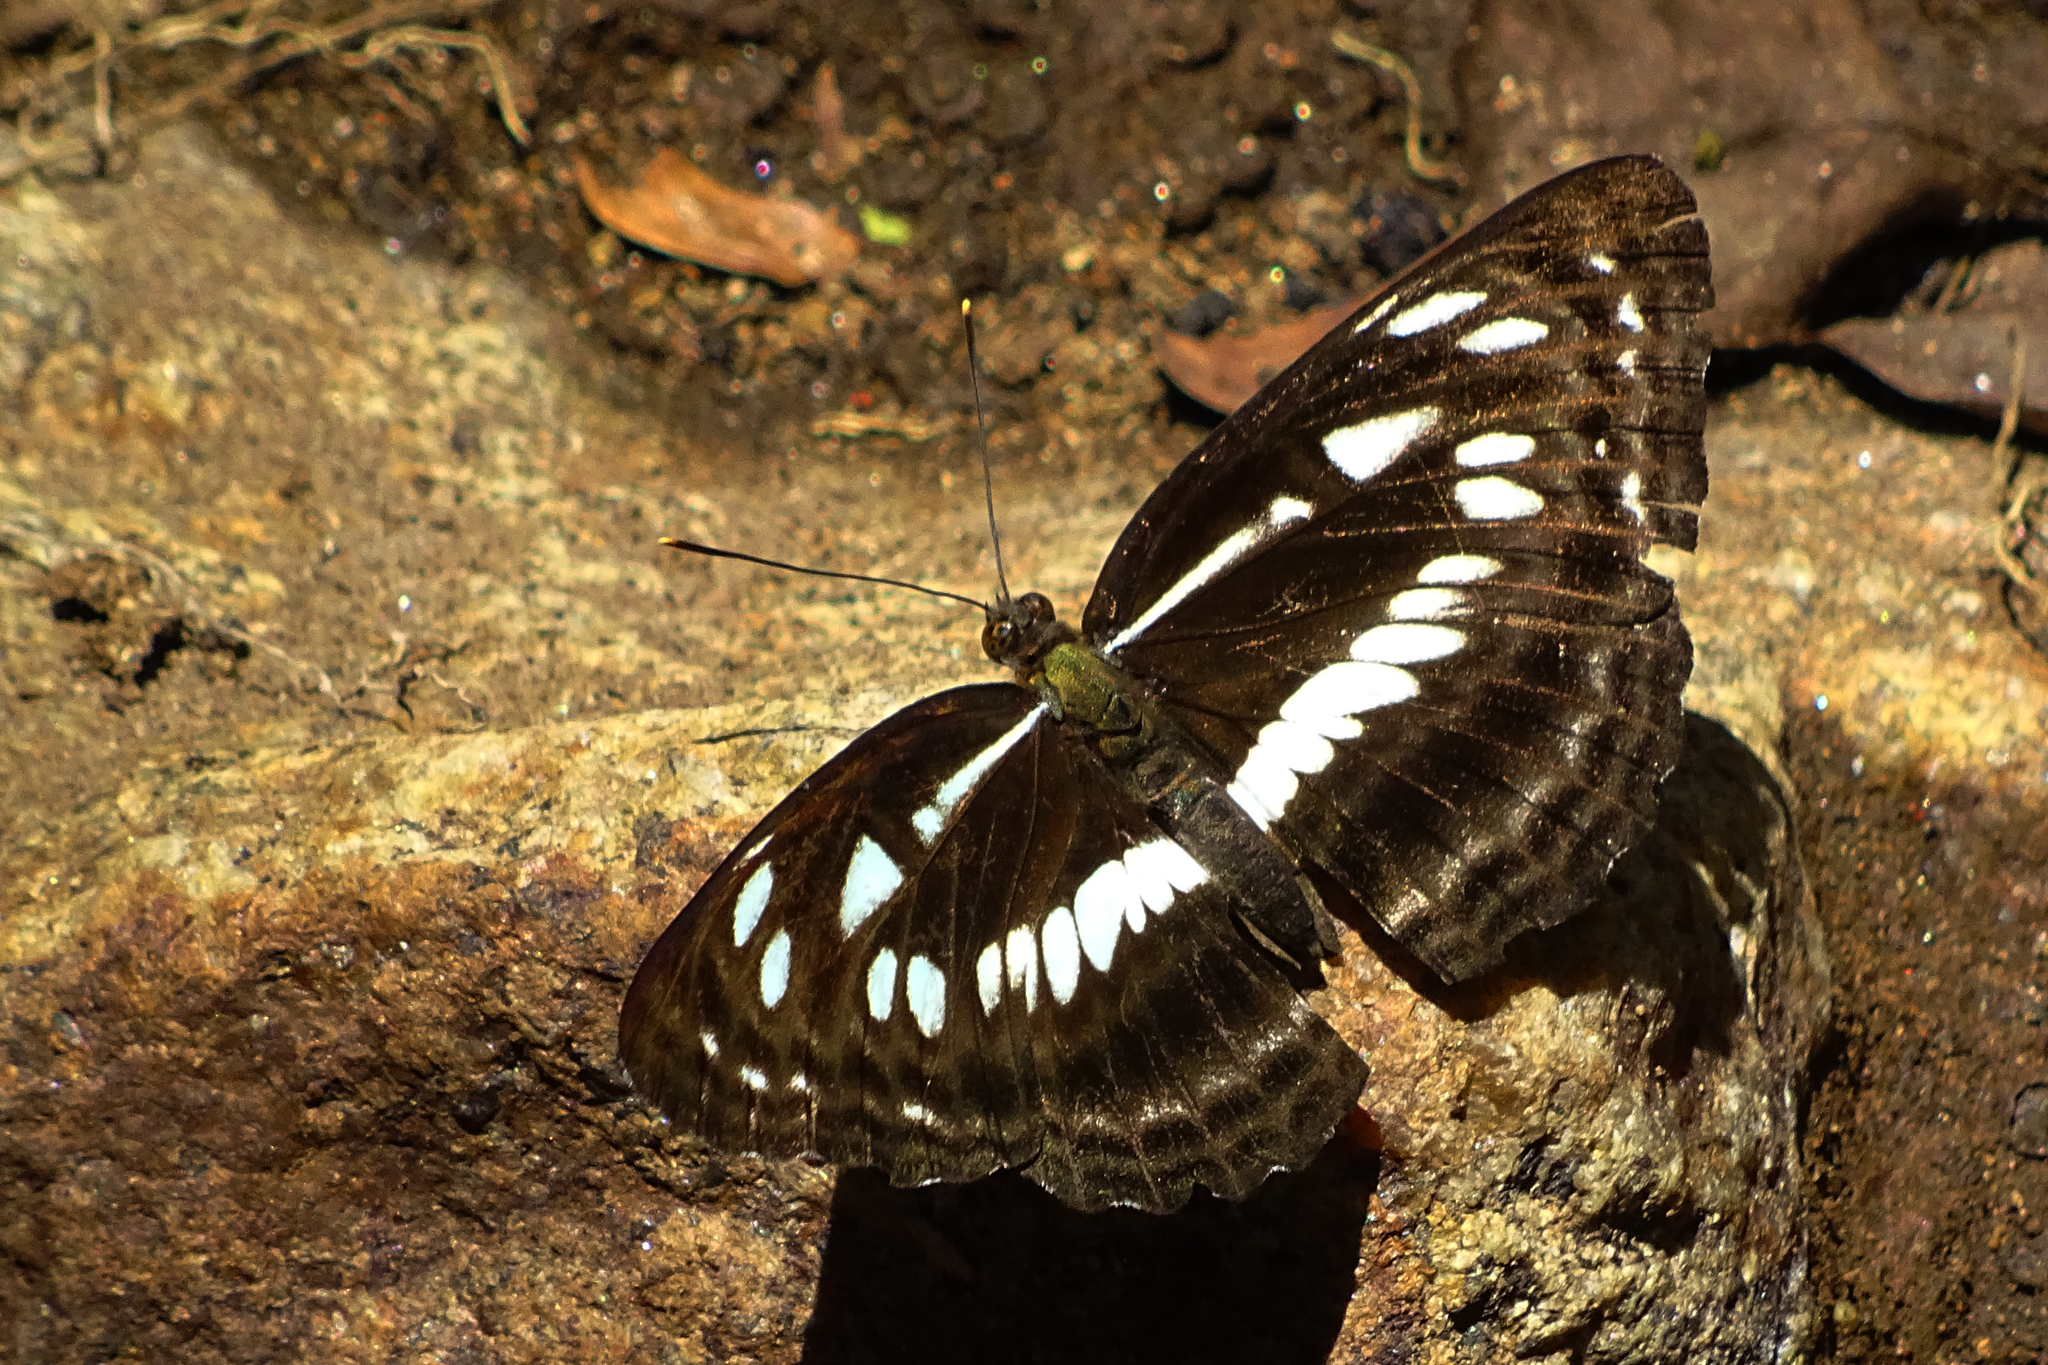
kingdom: Animalia
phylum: Arthropoda
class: Insecta
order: Lepidoptera
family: Nymphalidae
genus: Neptis
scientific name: Neptis jumbah
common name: Chestnut-streaked sailer
